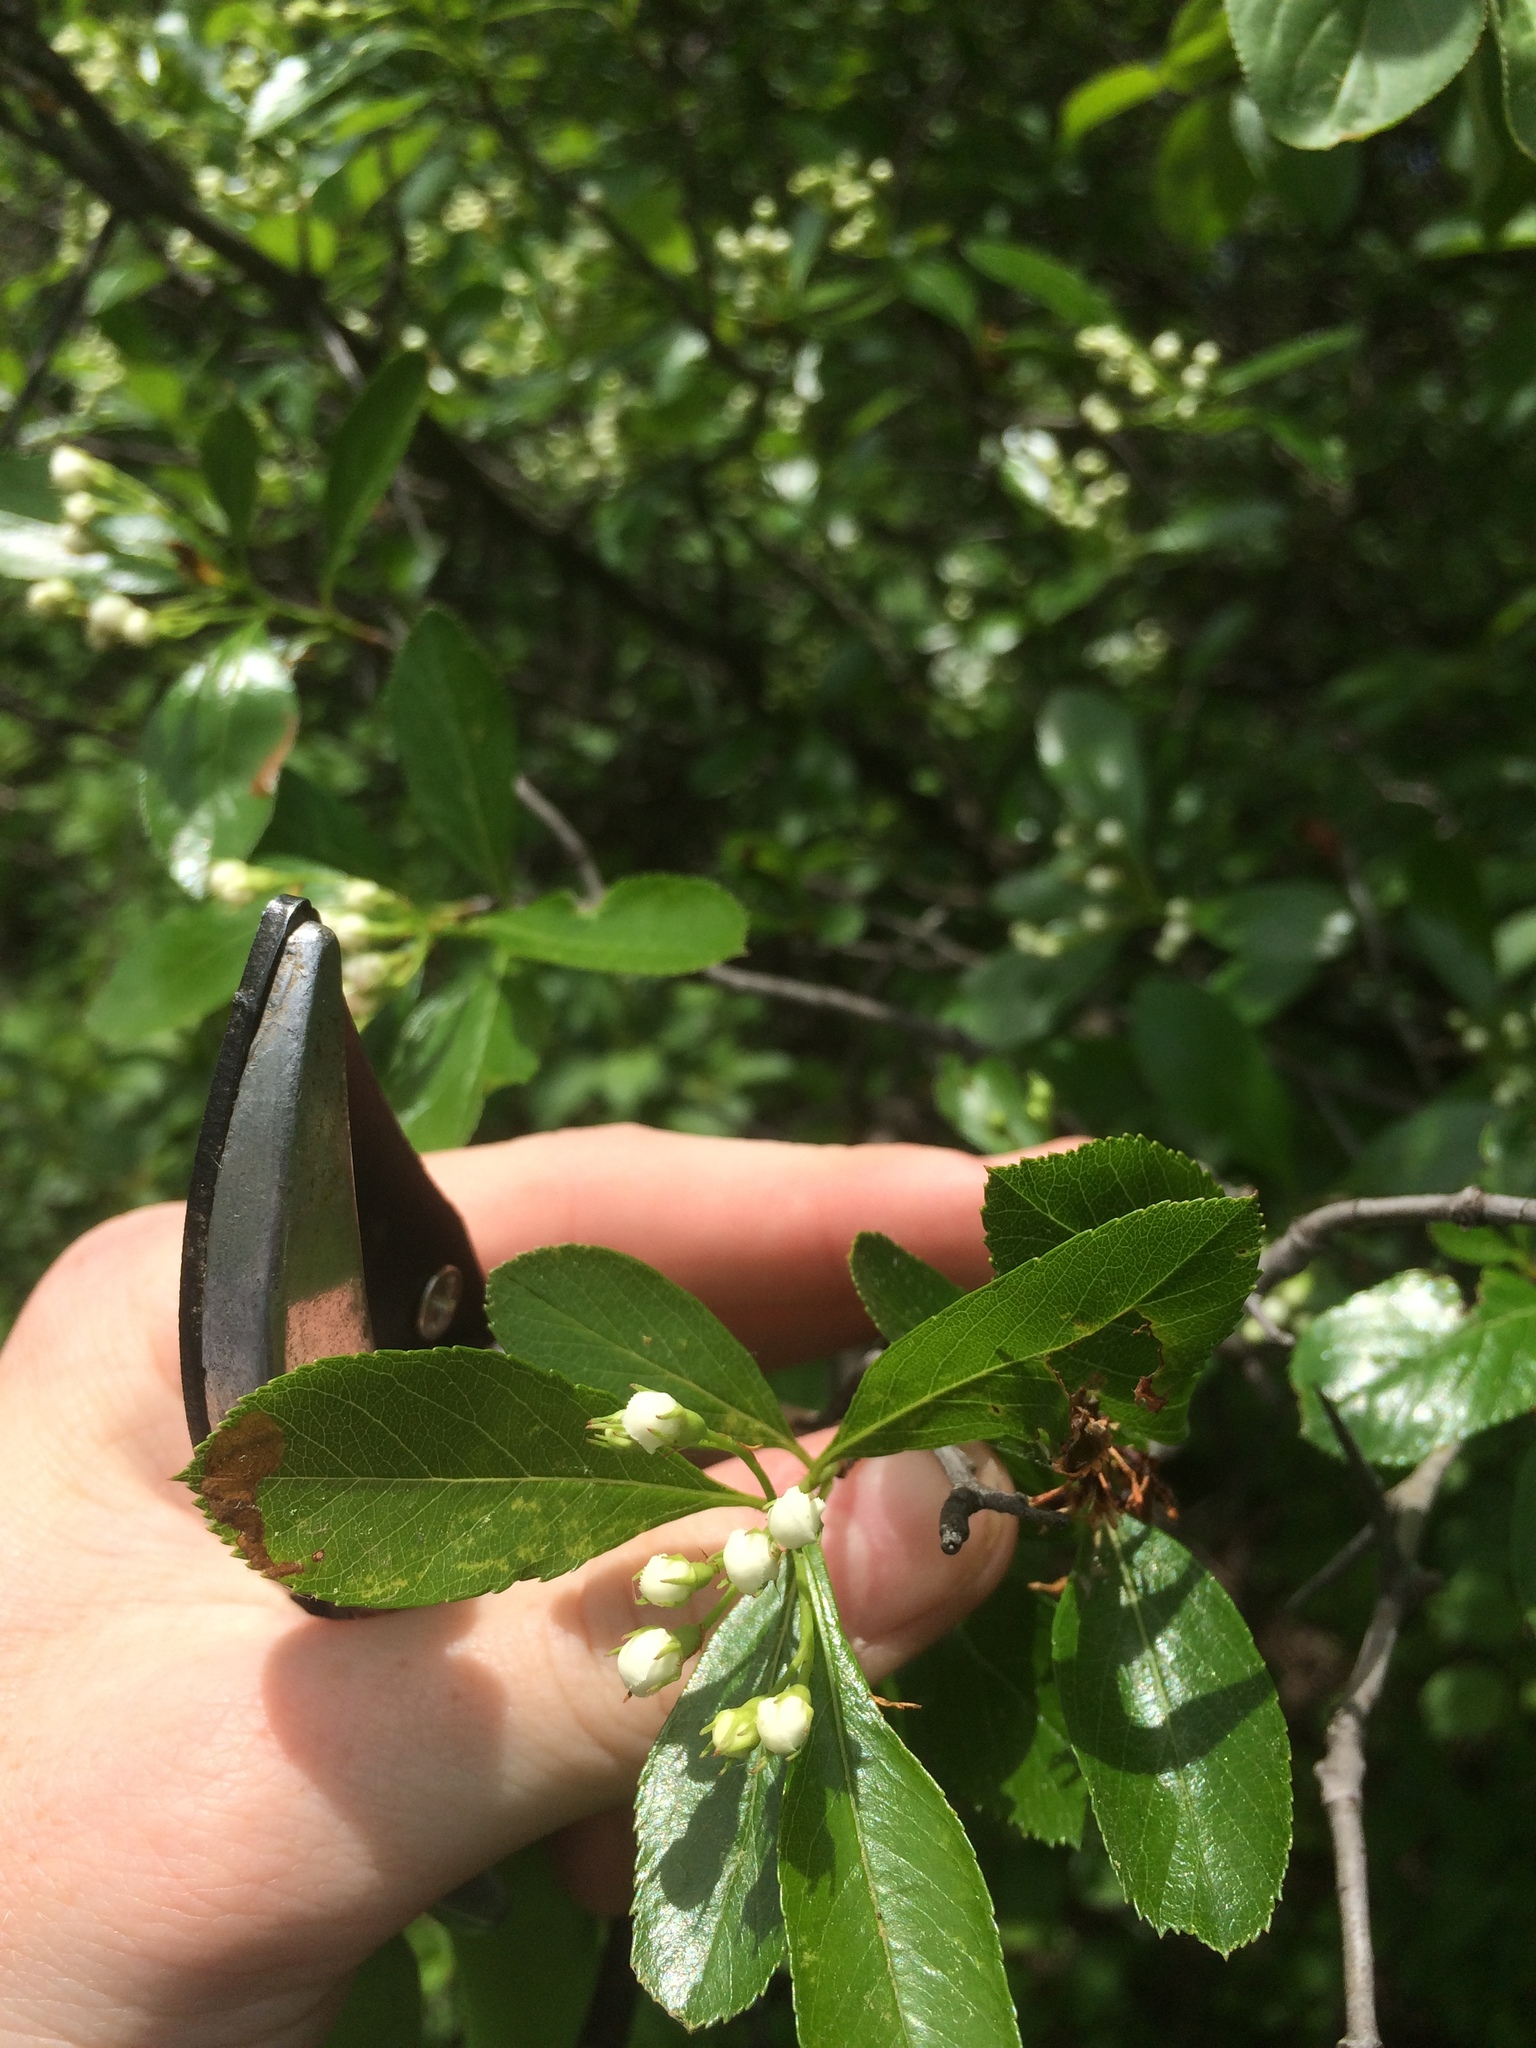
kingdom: Plantae
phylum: Tracheophyta
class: Magnoliopsida
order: Rosales
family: Rosaceae
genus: Crataegus
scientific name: Crataegus crus-galli
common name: Cockspurthorn
